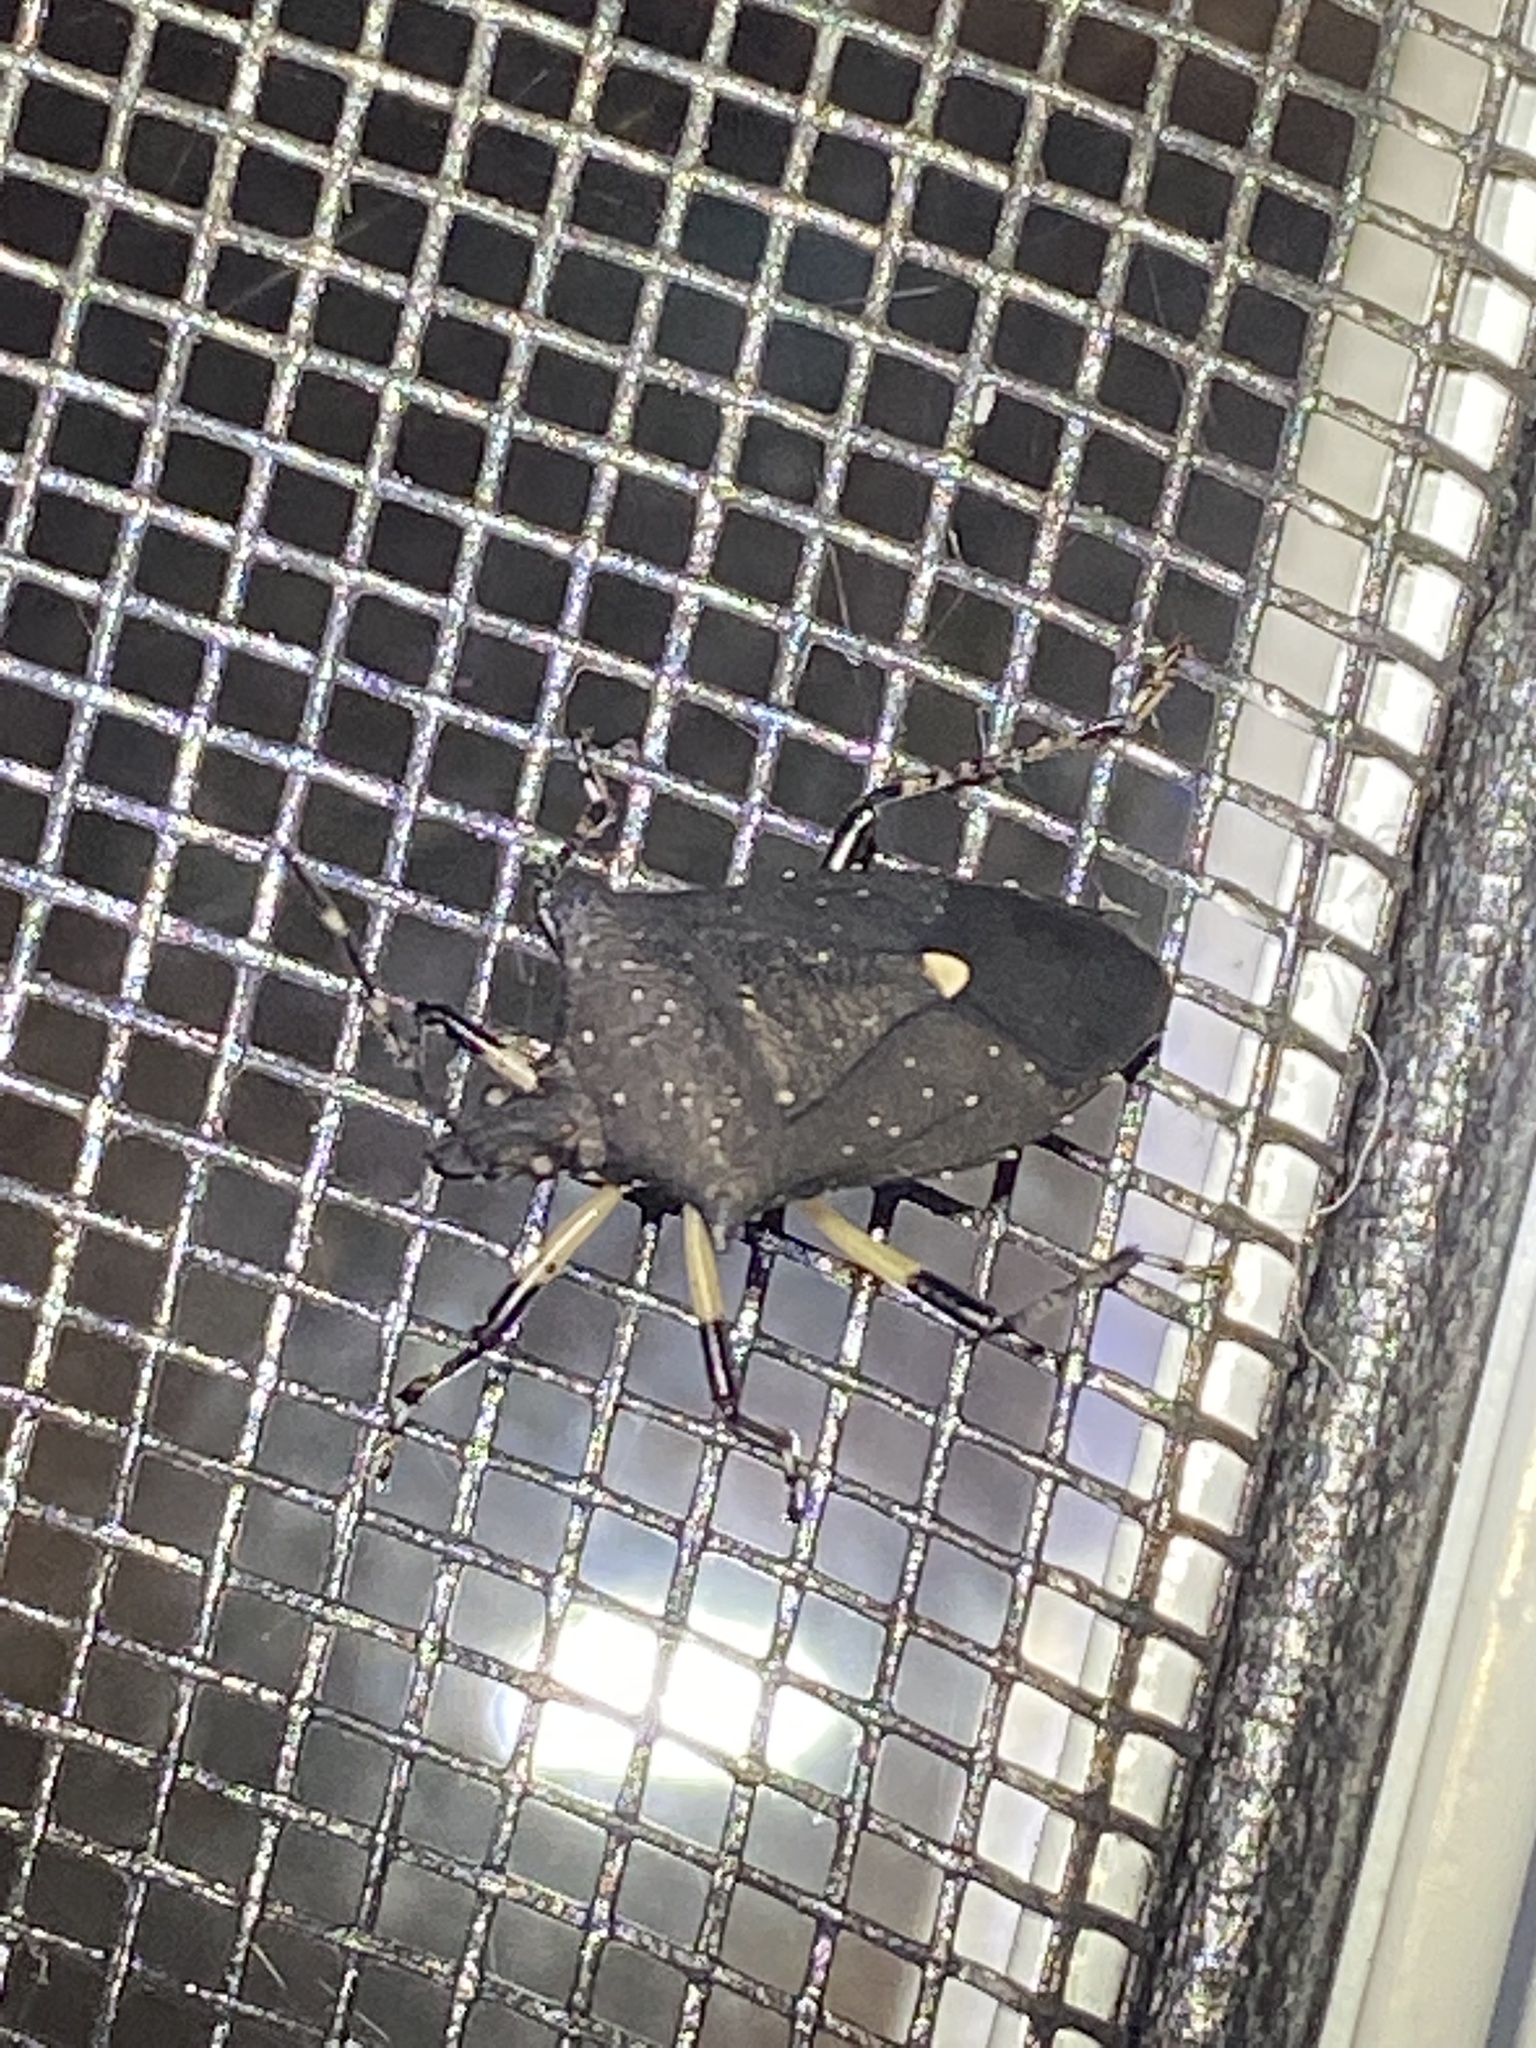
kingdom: Animalia
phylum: Arthropoda
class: Insecta
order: Hemiptera
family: Pentatomidae
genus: Proxys
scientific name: Proxys punctulatus
